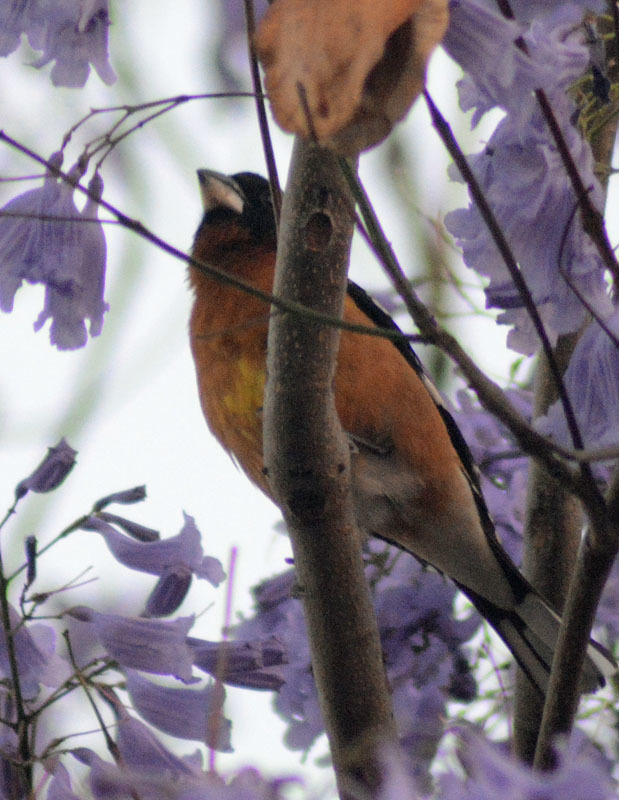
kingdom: Animalia
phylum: Chordata
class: Aves
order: Passeriformes
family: Cardinalidae
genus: Pheucticus
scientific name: Pheucticus melanocephalus
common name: Black-headed grosbeak
